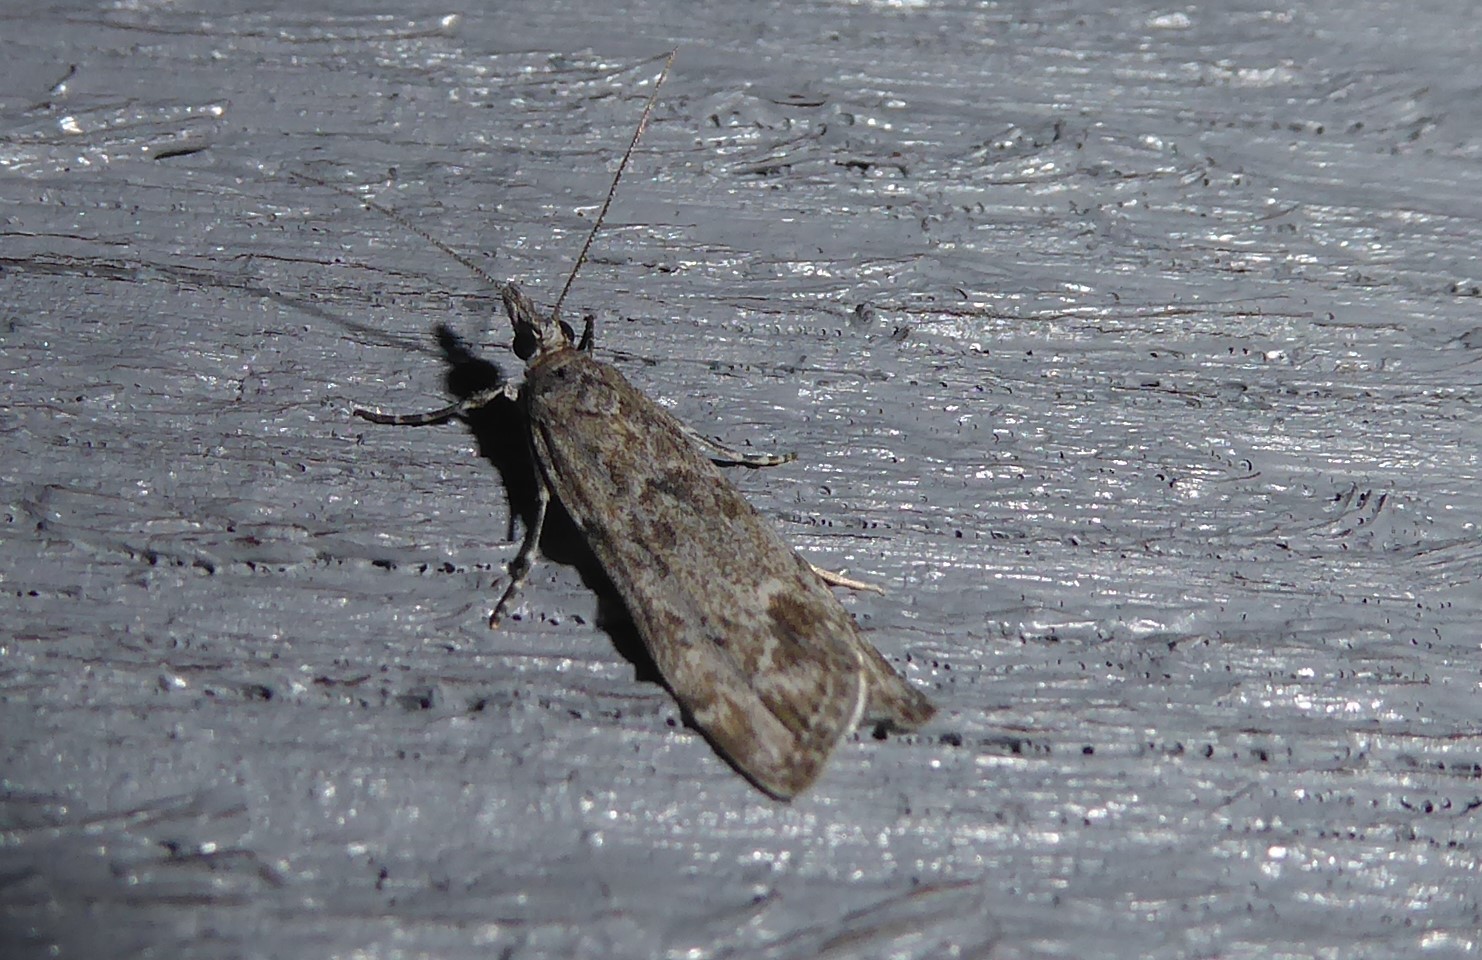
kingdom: Animalia
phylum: Arthropoda
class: Insecta
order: Lepidoptera
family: Crambidae
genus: Eudonia
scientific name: Eudonia rakaiensis
